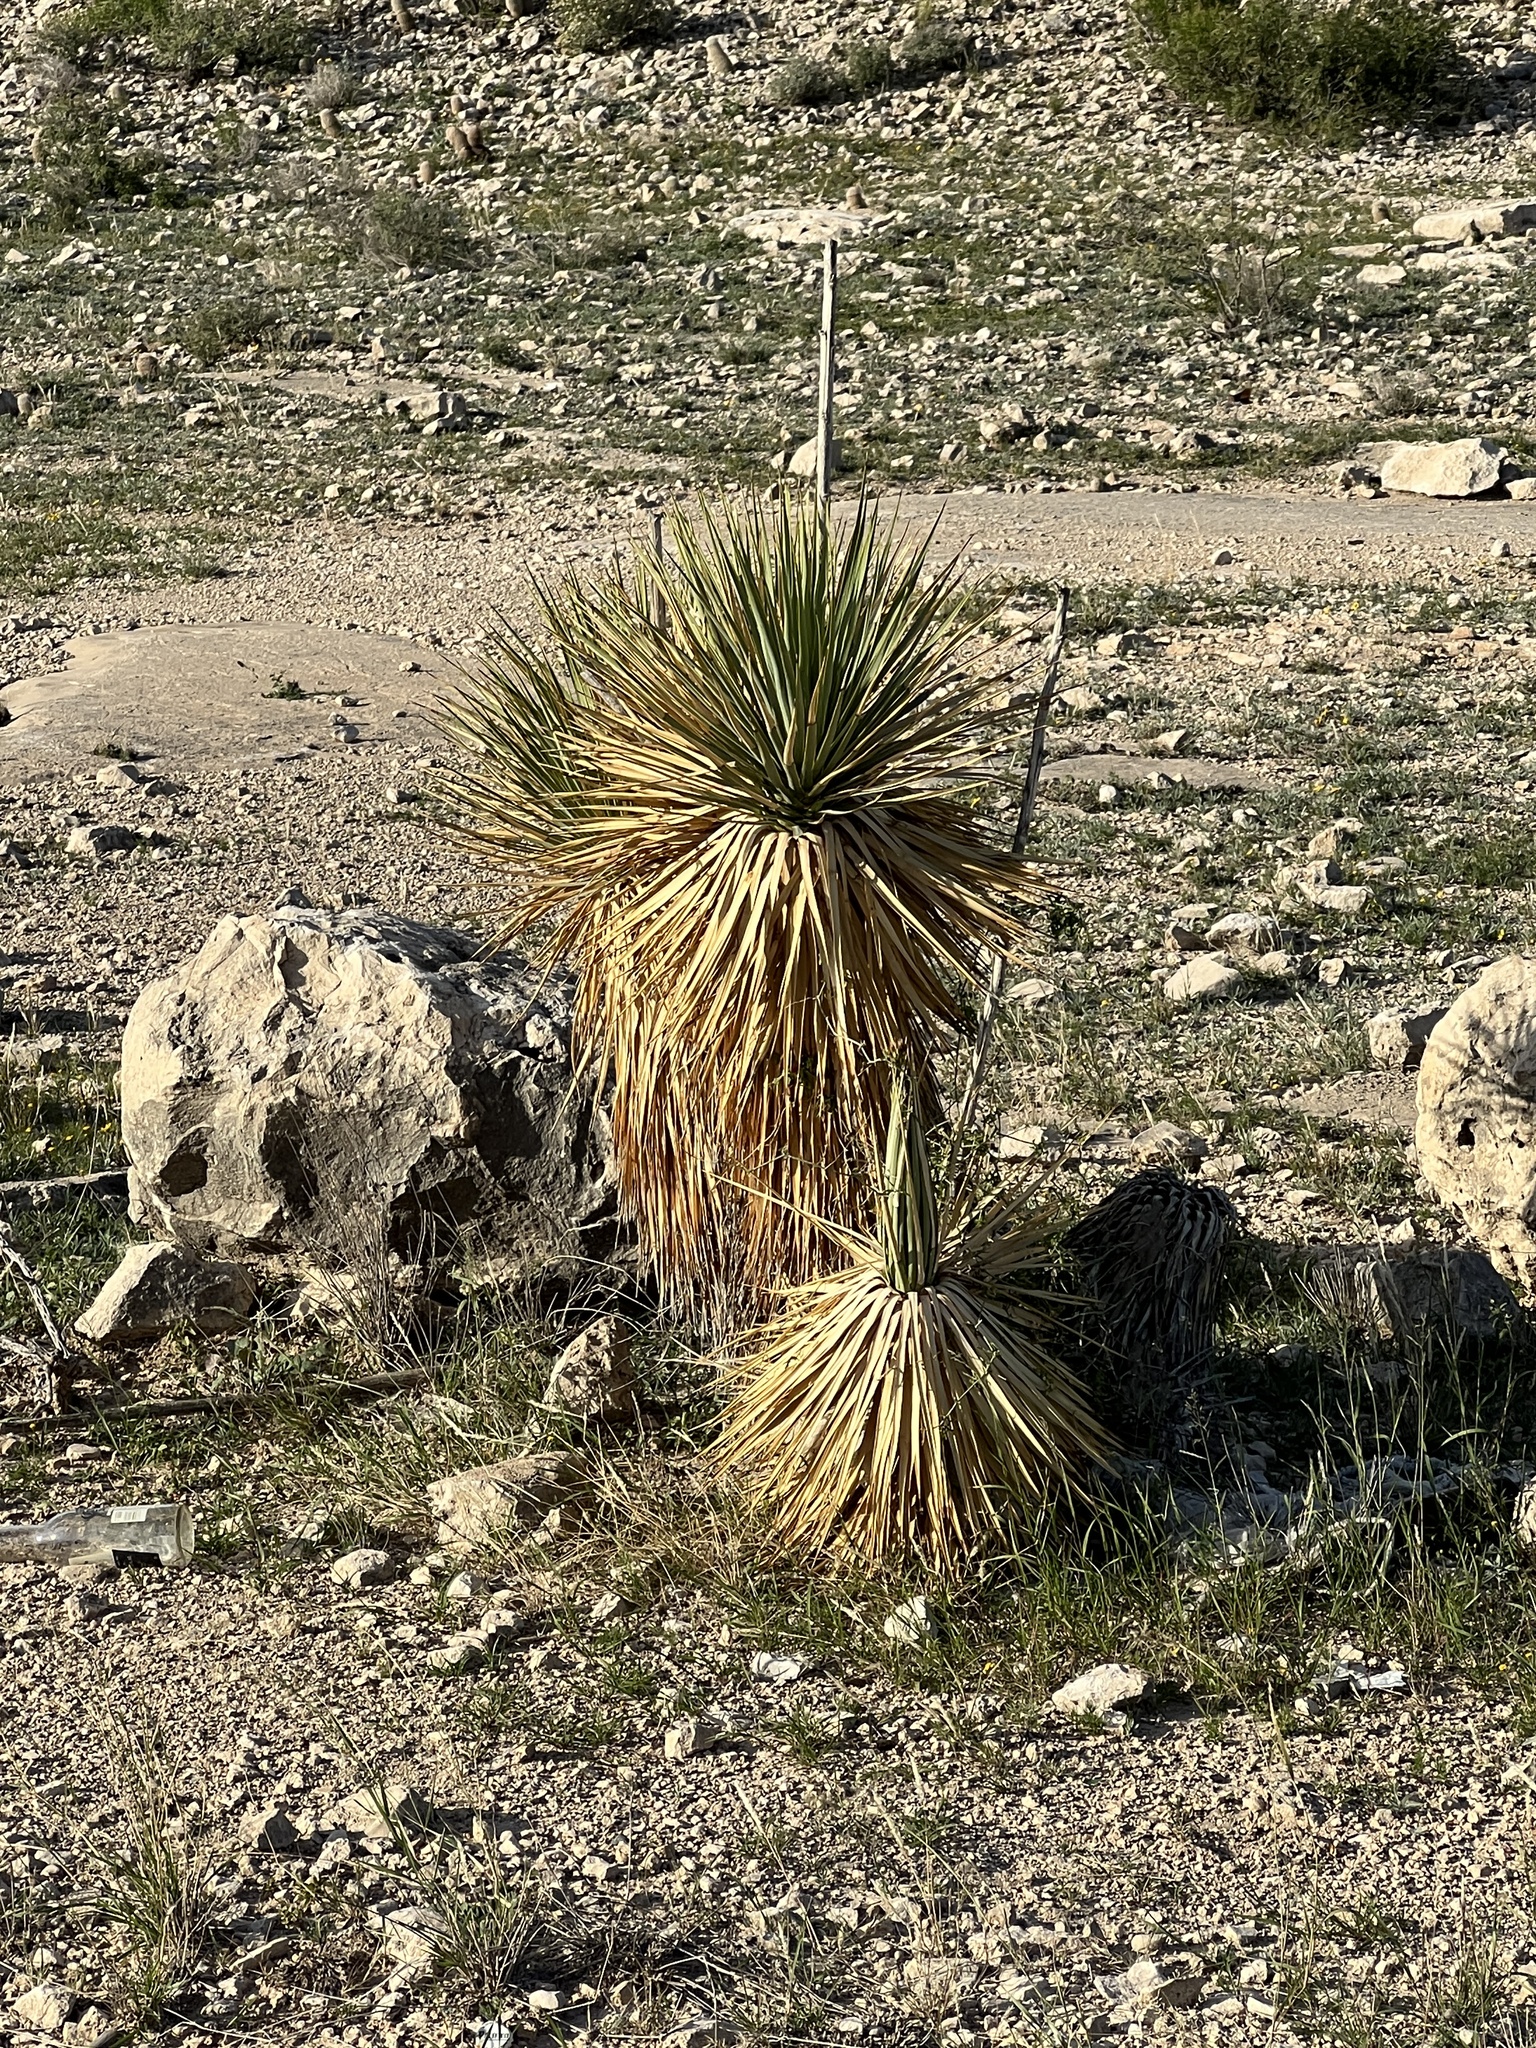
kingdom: Plantae
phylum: Tracheophyta
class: Liliopsida
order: Asparagales
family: Asparagaceae
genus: Yucca
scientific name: Yucca thompsoniana
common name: Trans-pecos yucca
